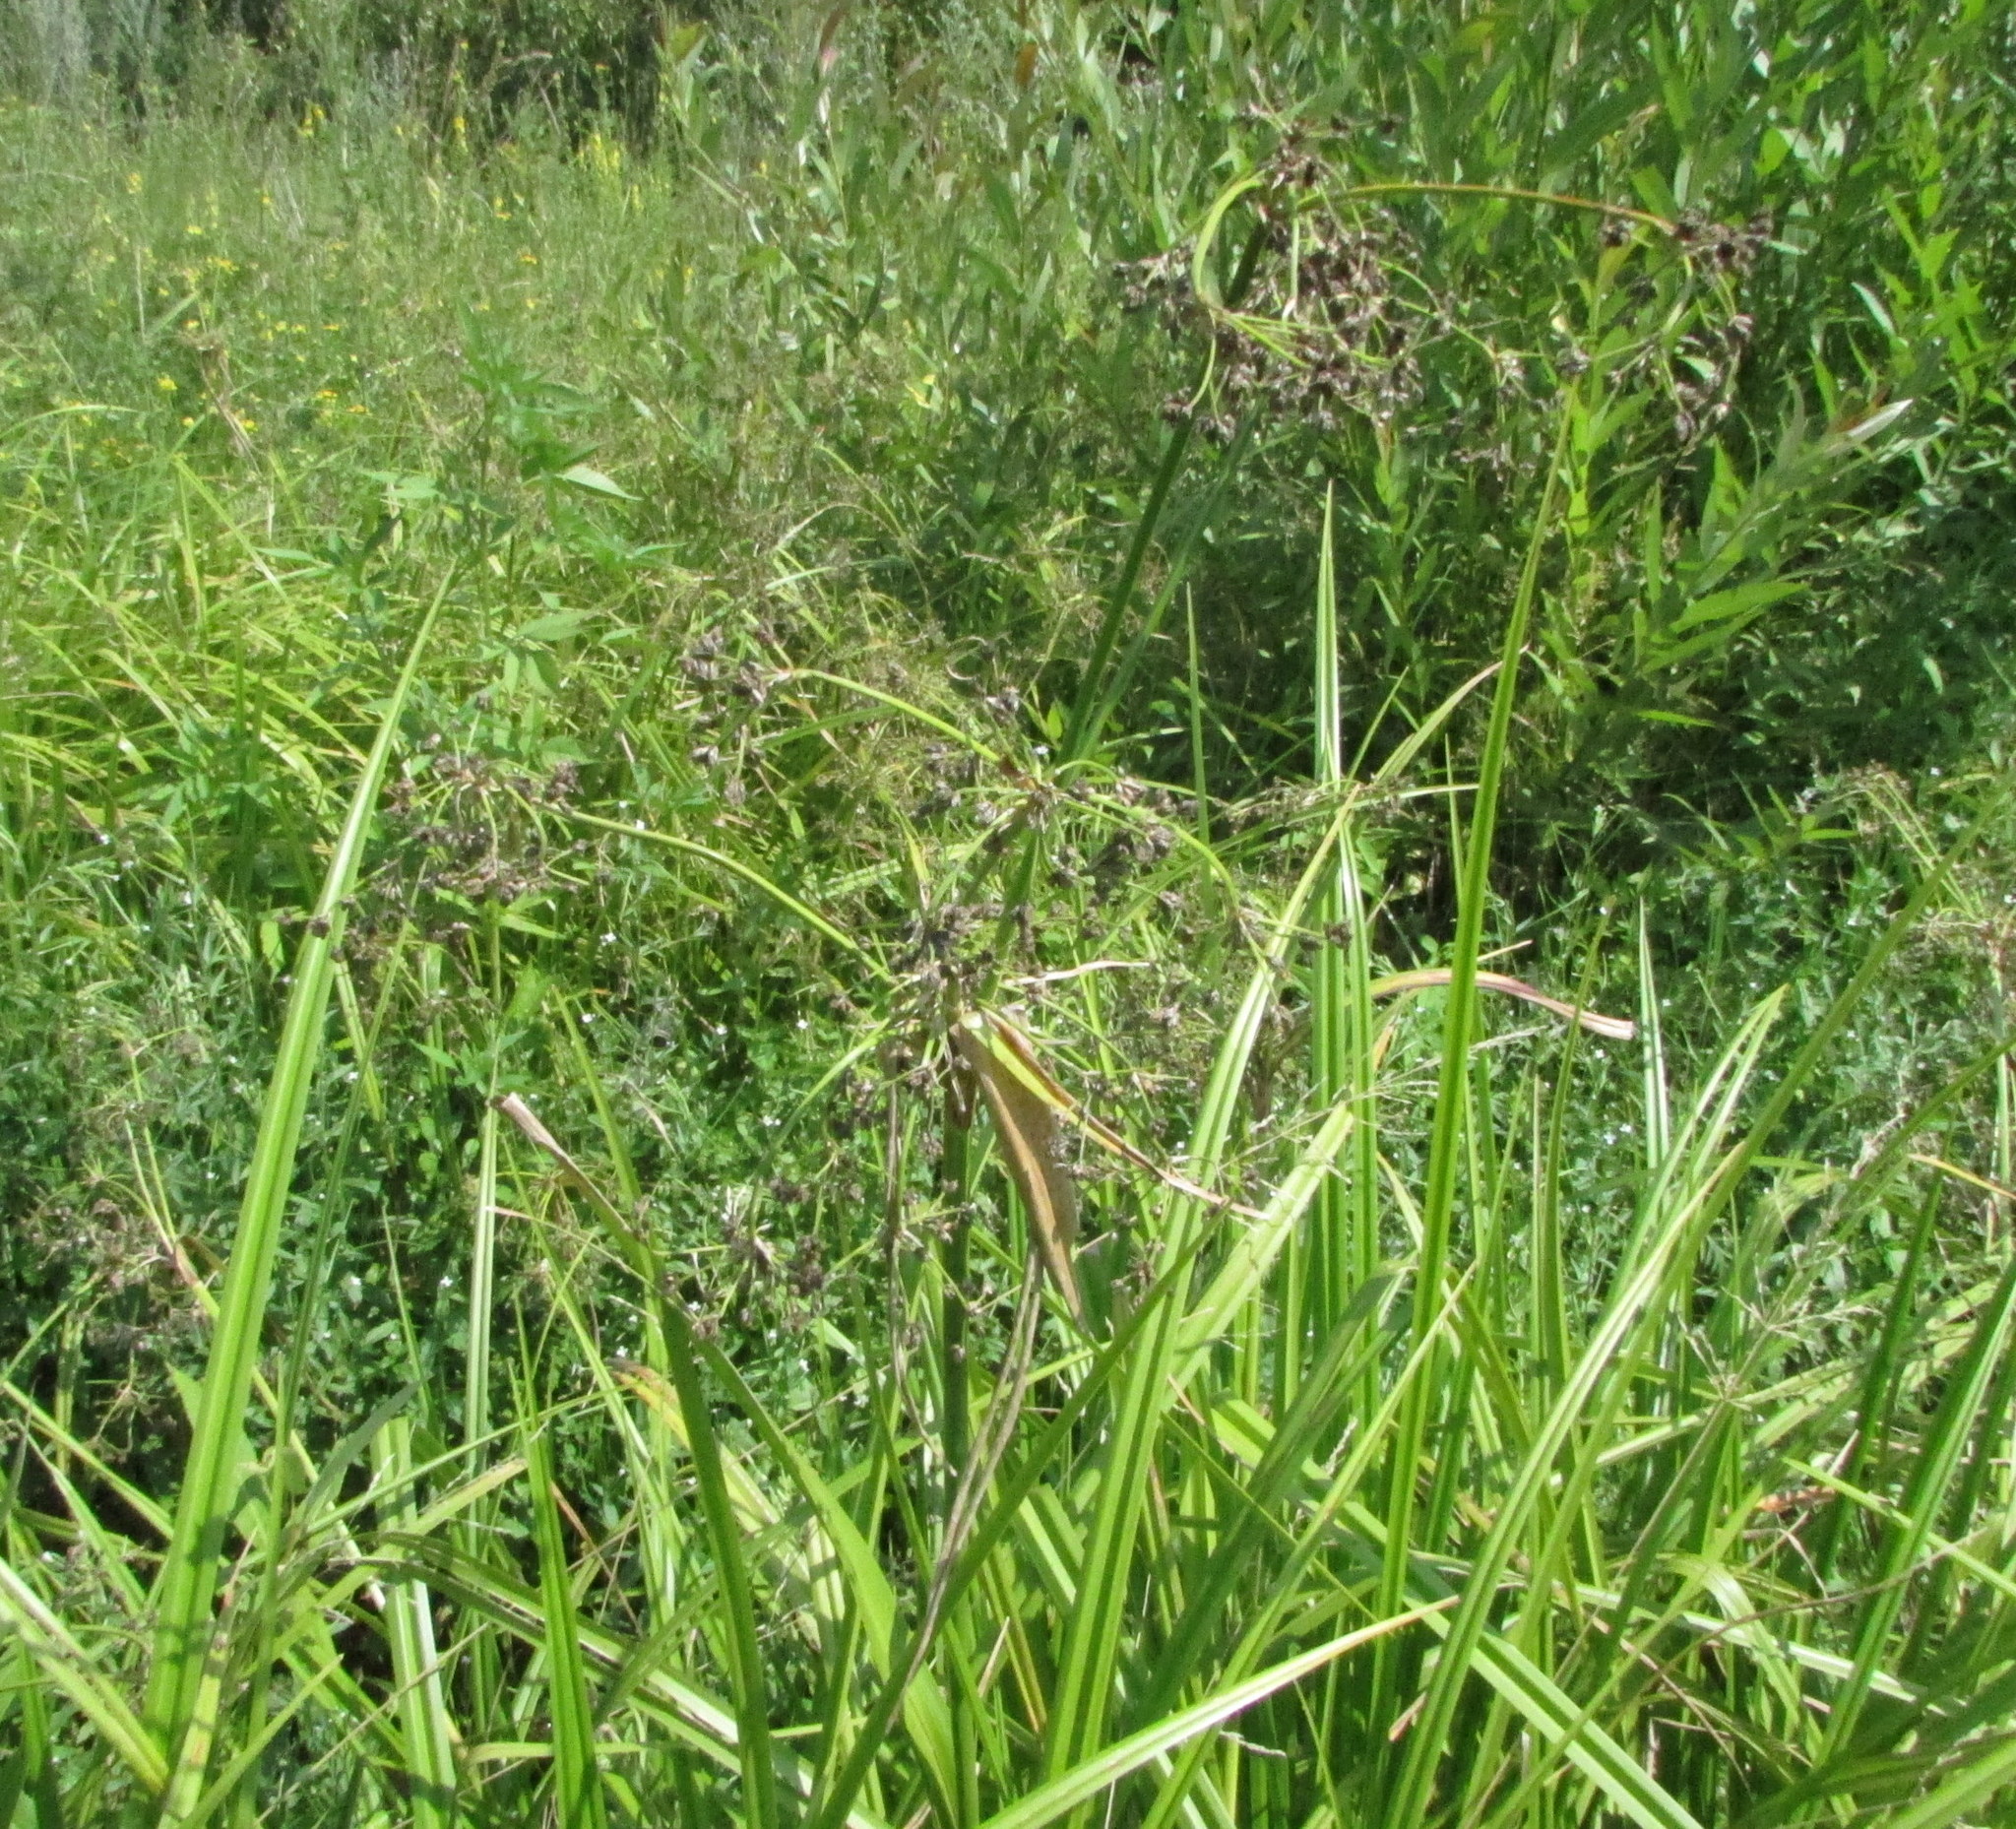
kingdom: Plantae
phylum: Tracheophyta
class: Liliopsida
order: Poales
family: Cyperaceae
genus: Scirpus
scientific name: Scirpus sylvaticus
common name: Wood club-rush
